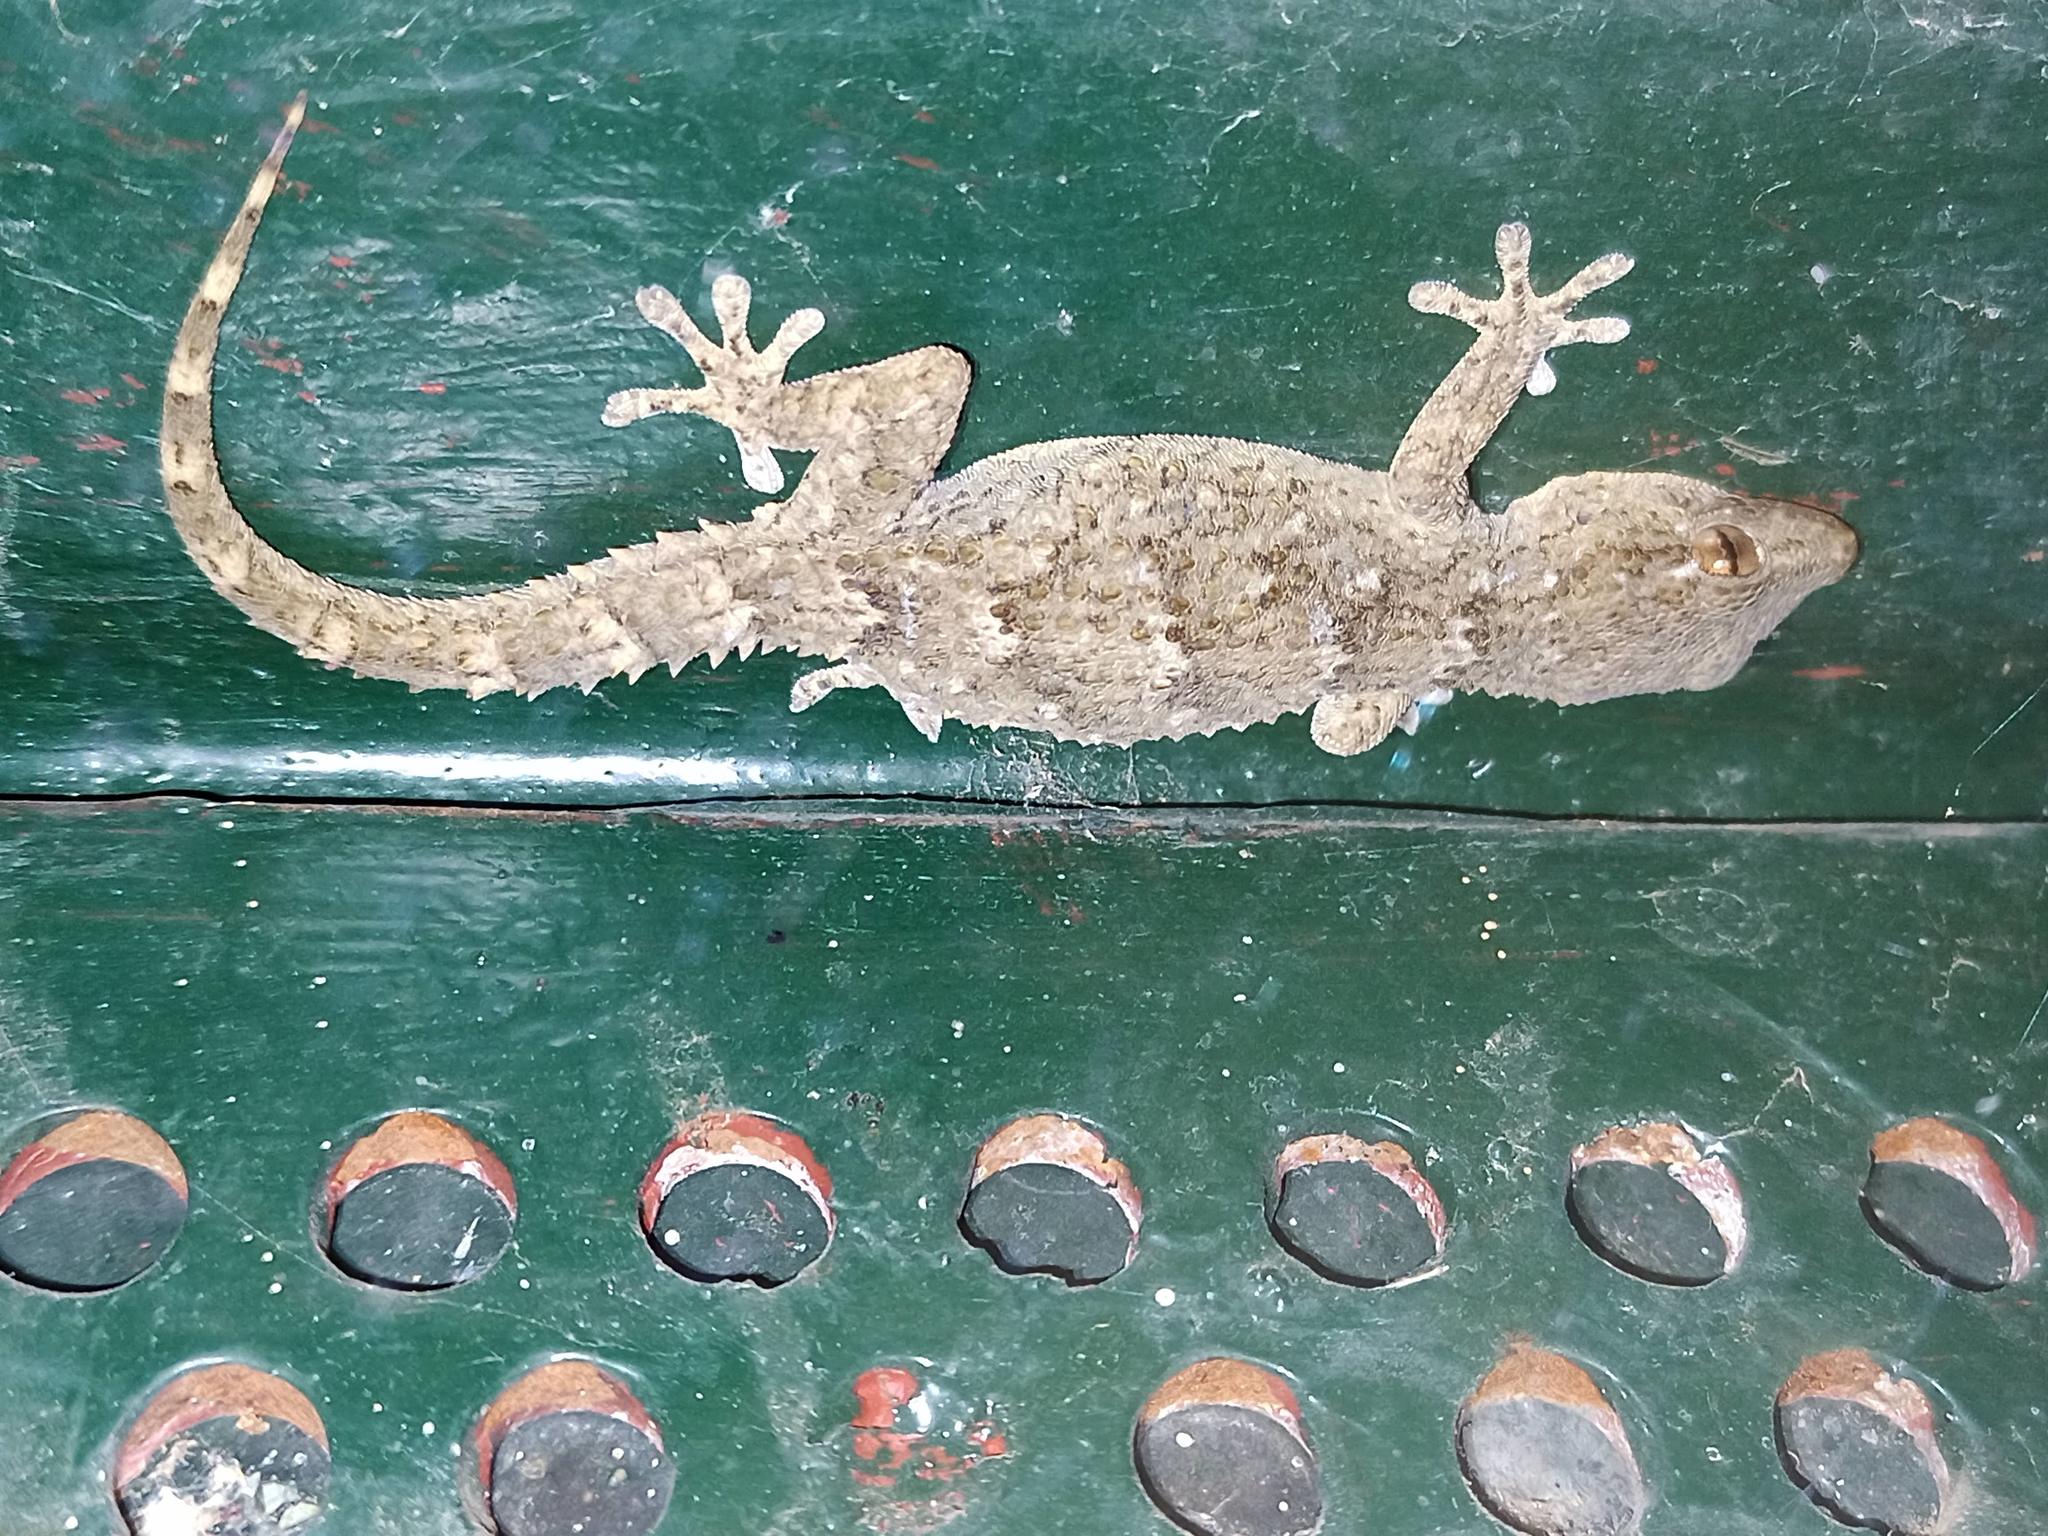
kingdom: Animalia
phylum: Chordata
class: Squamata
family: Phyllodactylidae
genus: Tarentola
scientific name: Tarentola angustimentalis
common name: East canary gecko
